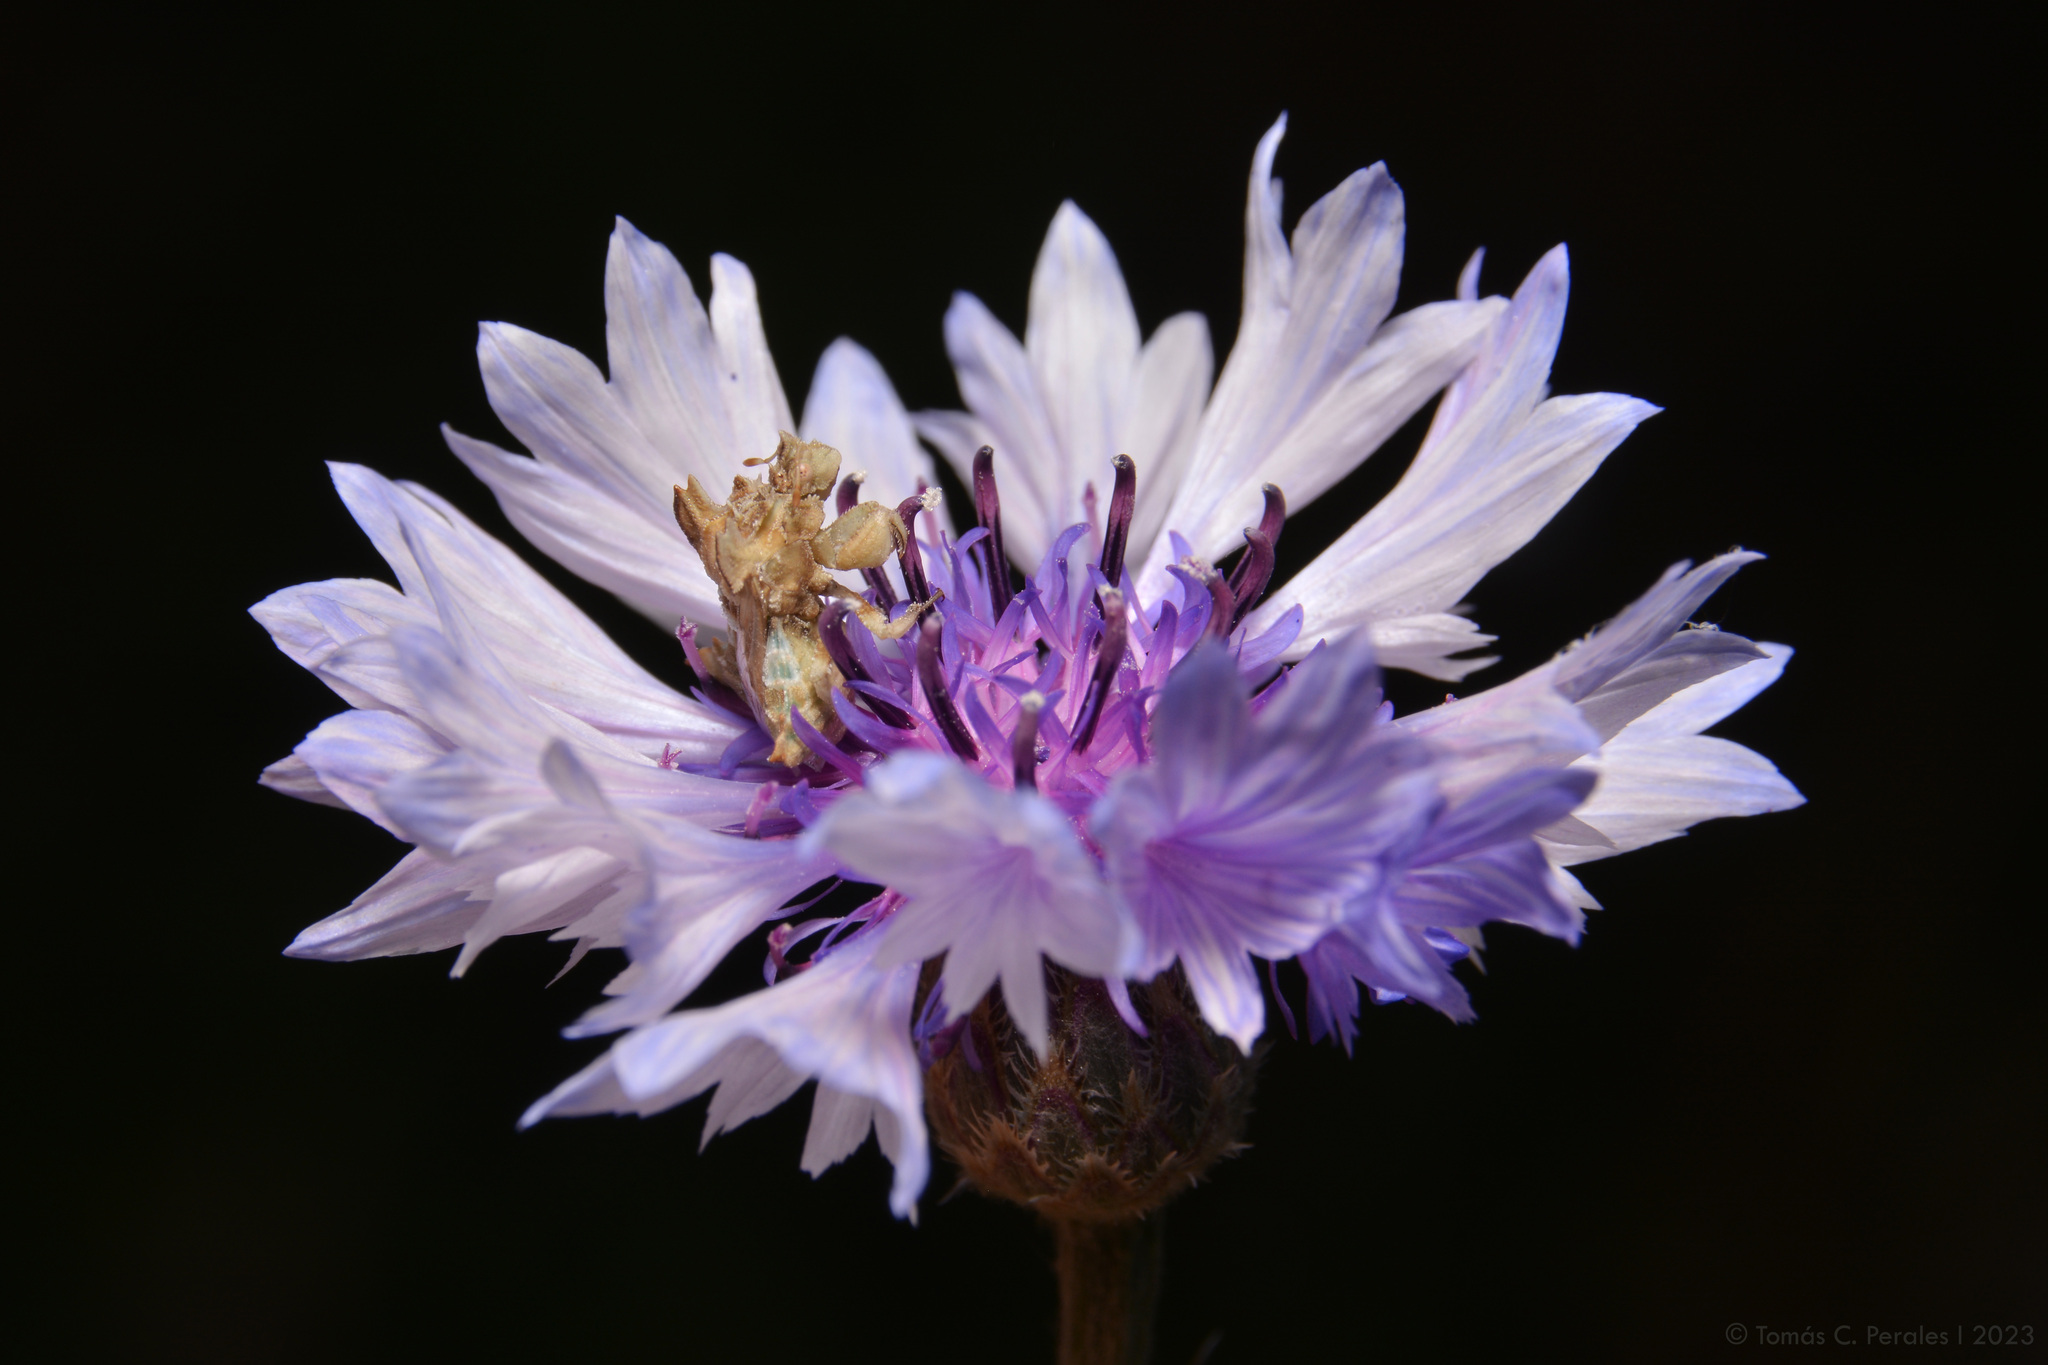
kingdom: Animalia
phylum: Arthropoda
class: Insecta
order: Hemiptera
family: Reduviidae
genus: Phymata
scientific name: Phymata fortificata
